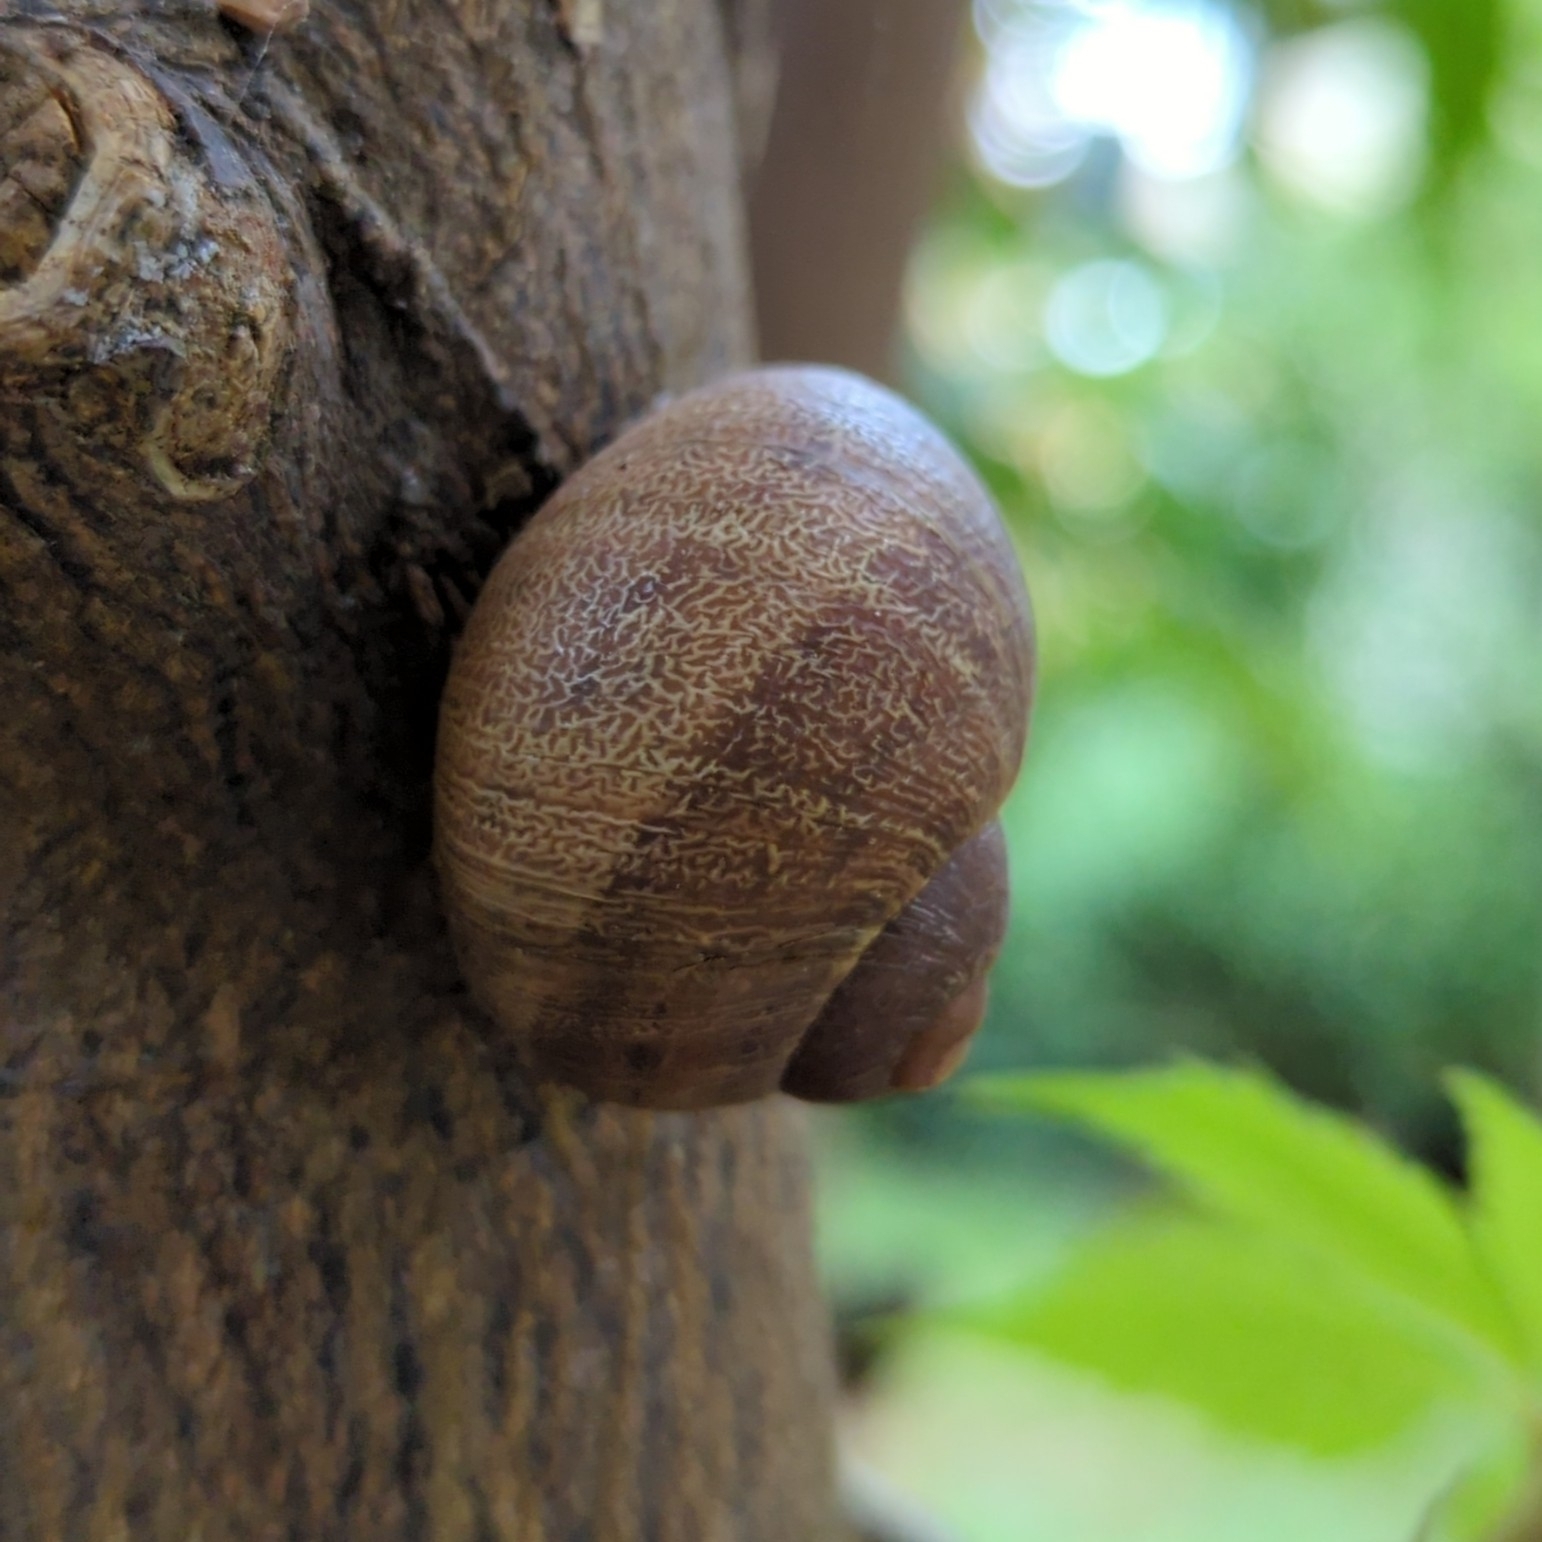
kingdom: Animalia
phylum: Mollusca
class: Gastropoda
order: Stylommatophora
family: Helicidae
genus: Cornu
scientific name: Cornu aspersum
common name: Brown garden snail
